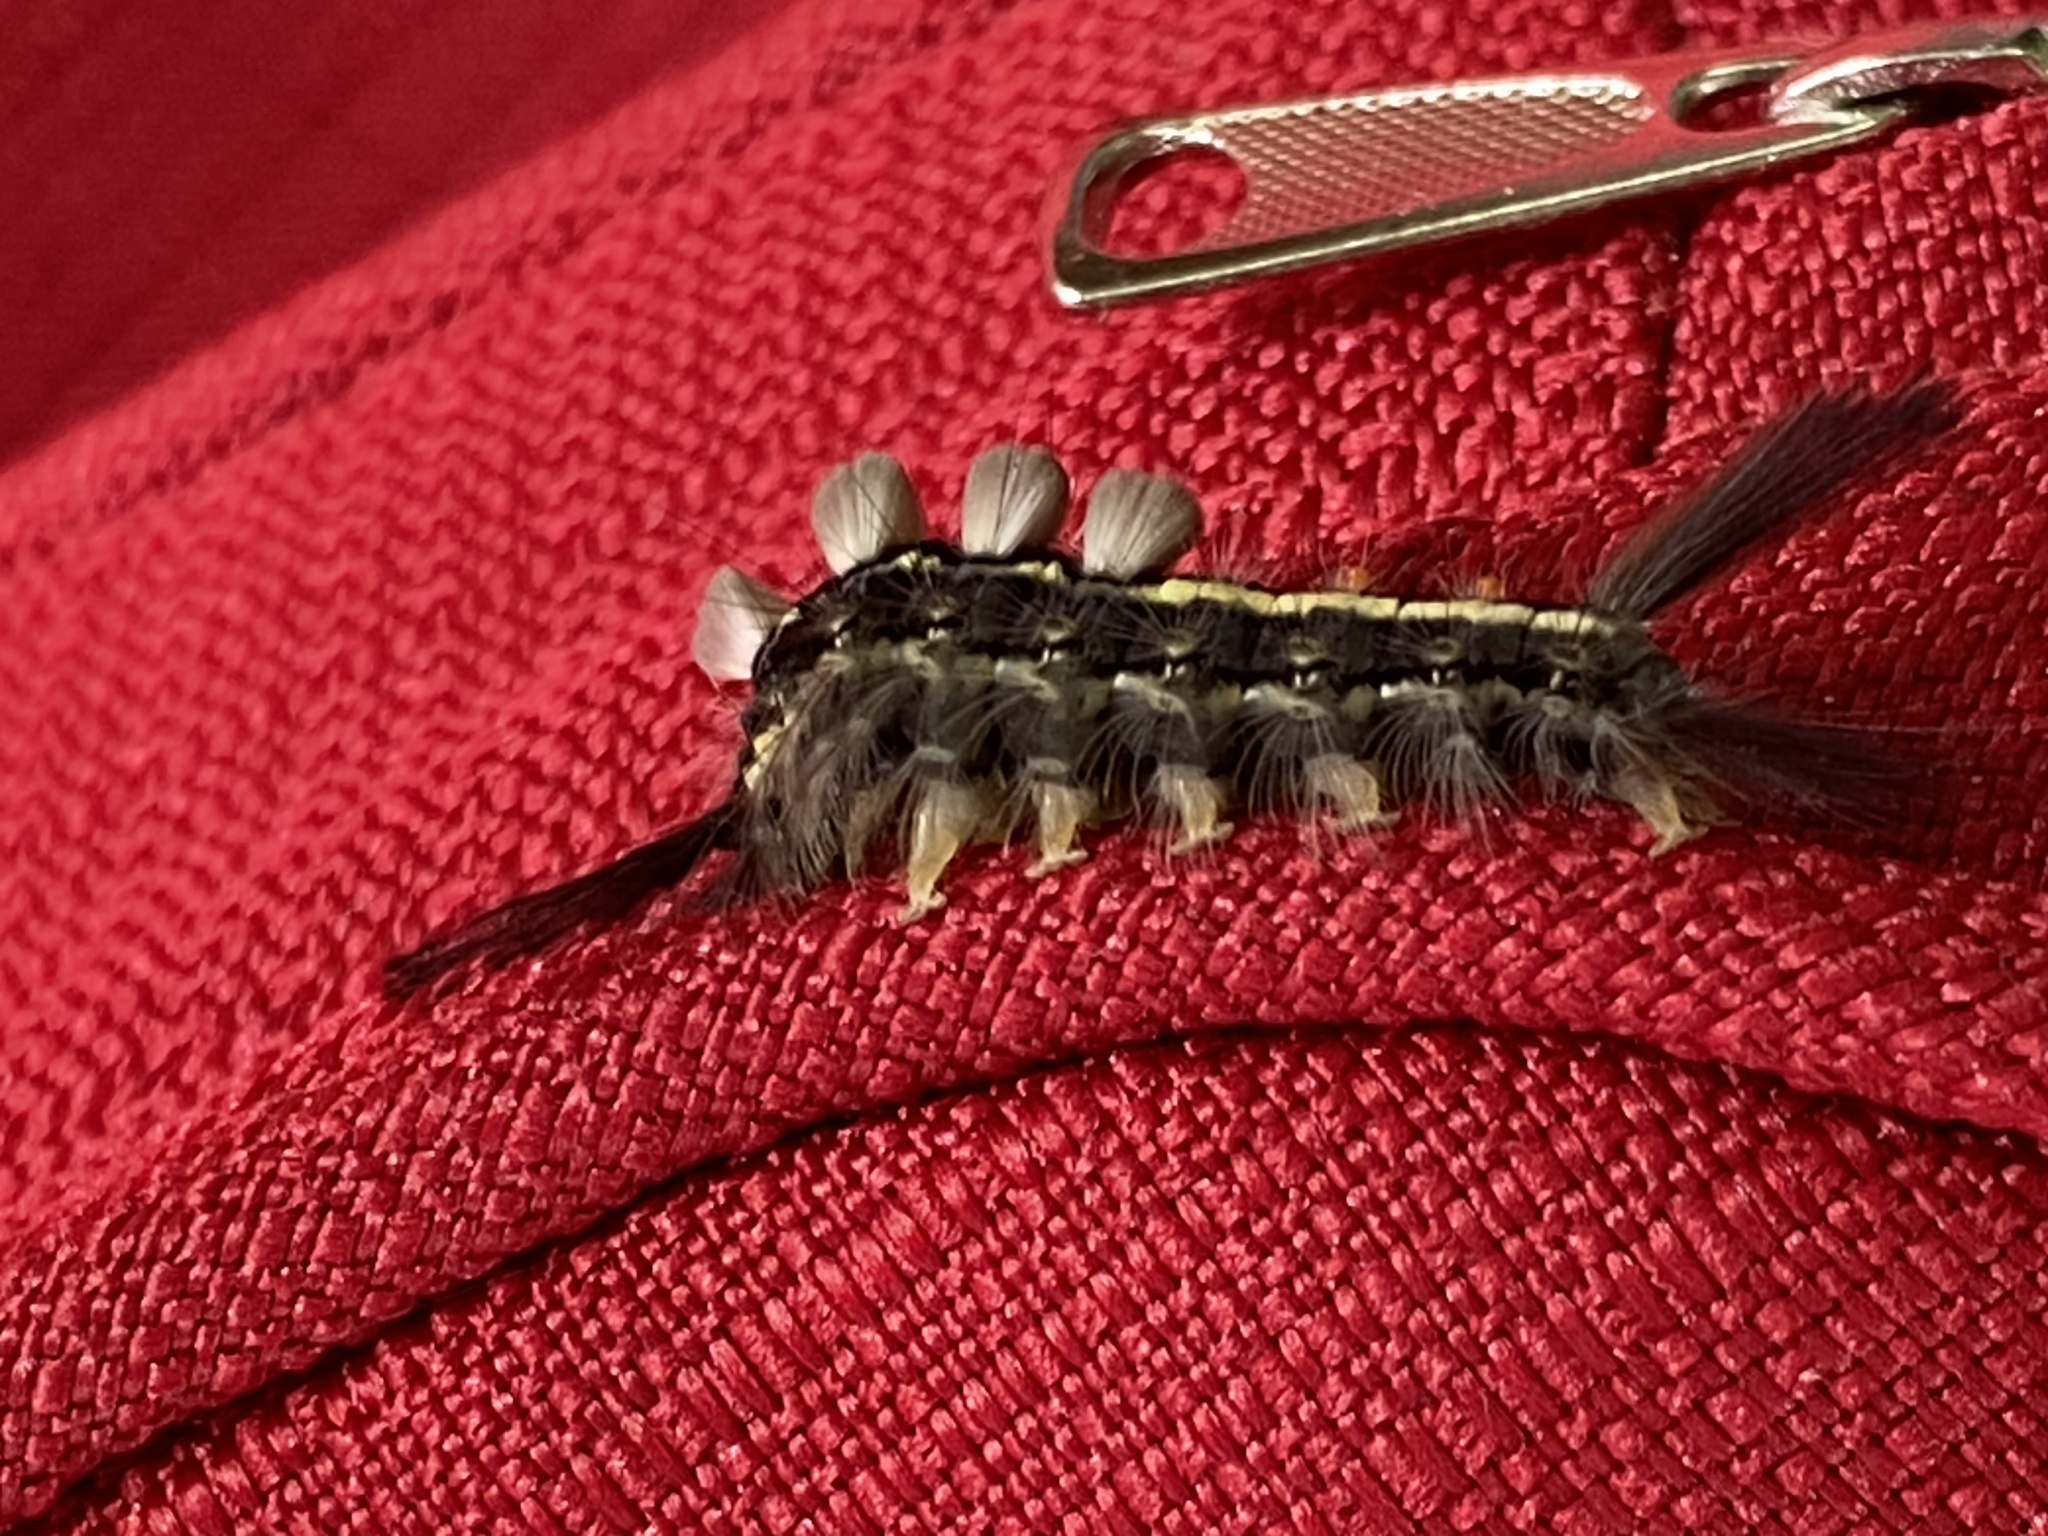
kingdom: Animalia
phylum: Arthropoda
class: Insecta
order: Lepidoptera
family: Erebidae
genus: Orgyia
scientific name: Orgyia leucostigma
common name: White-marked tussock moth
